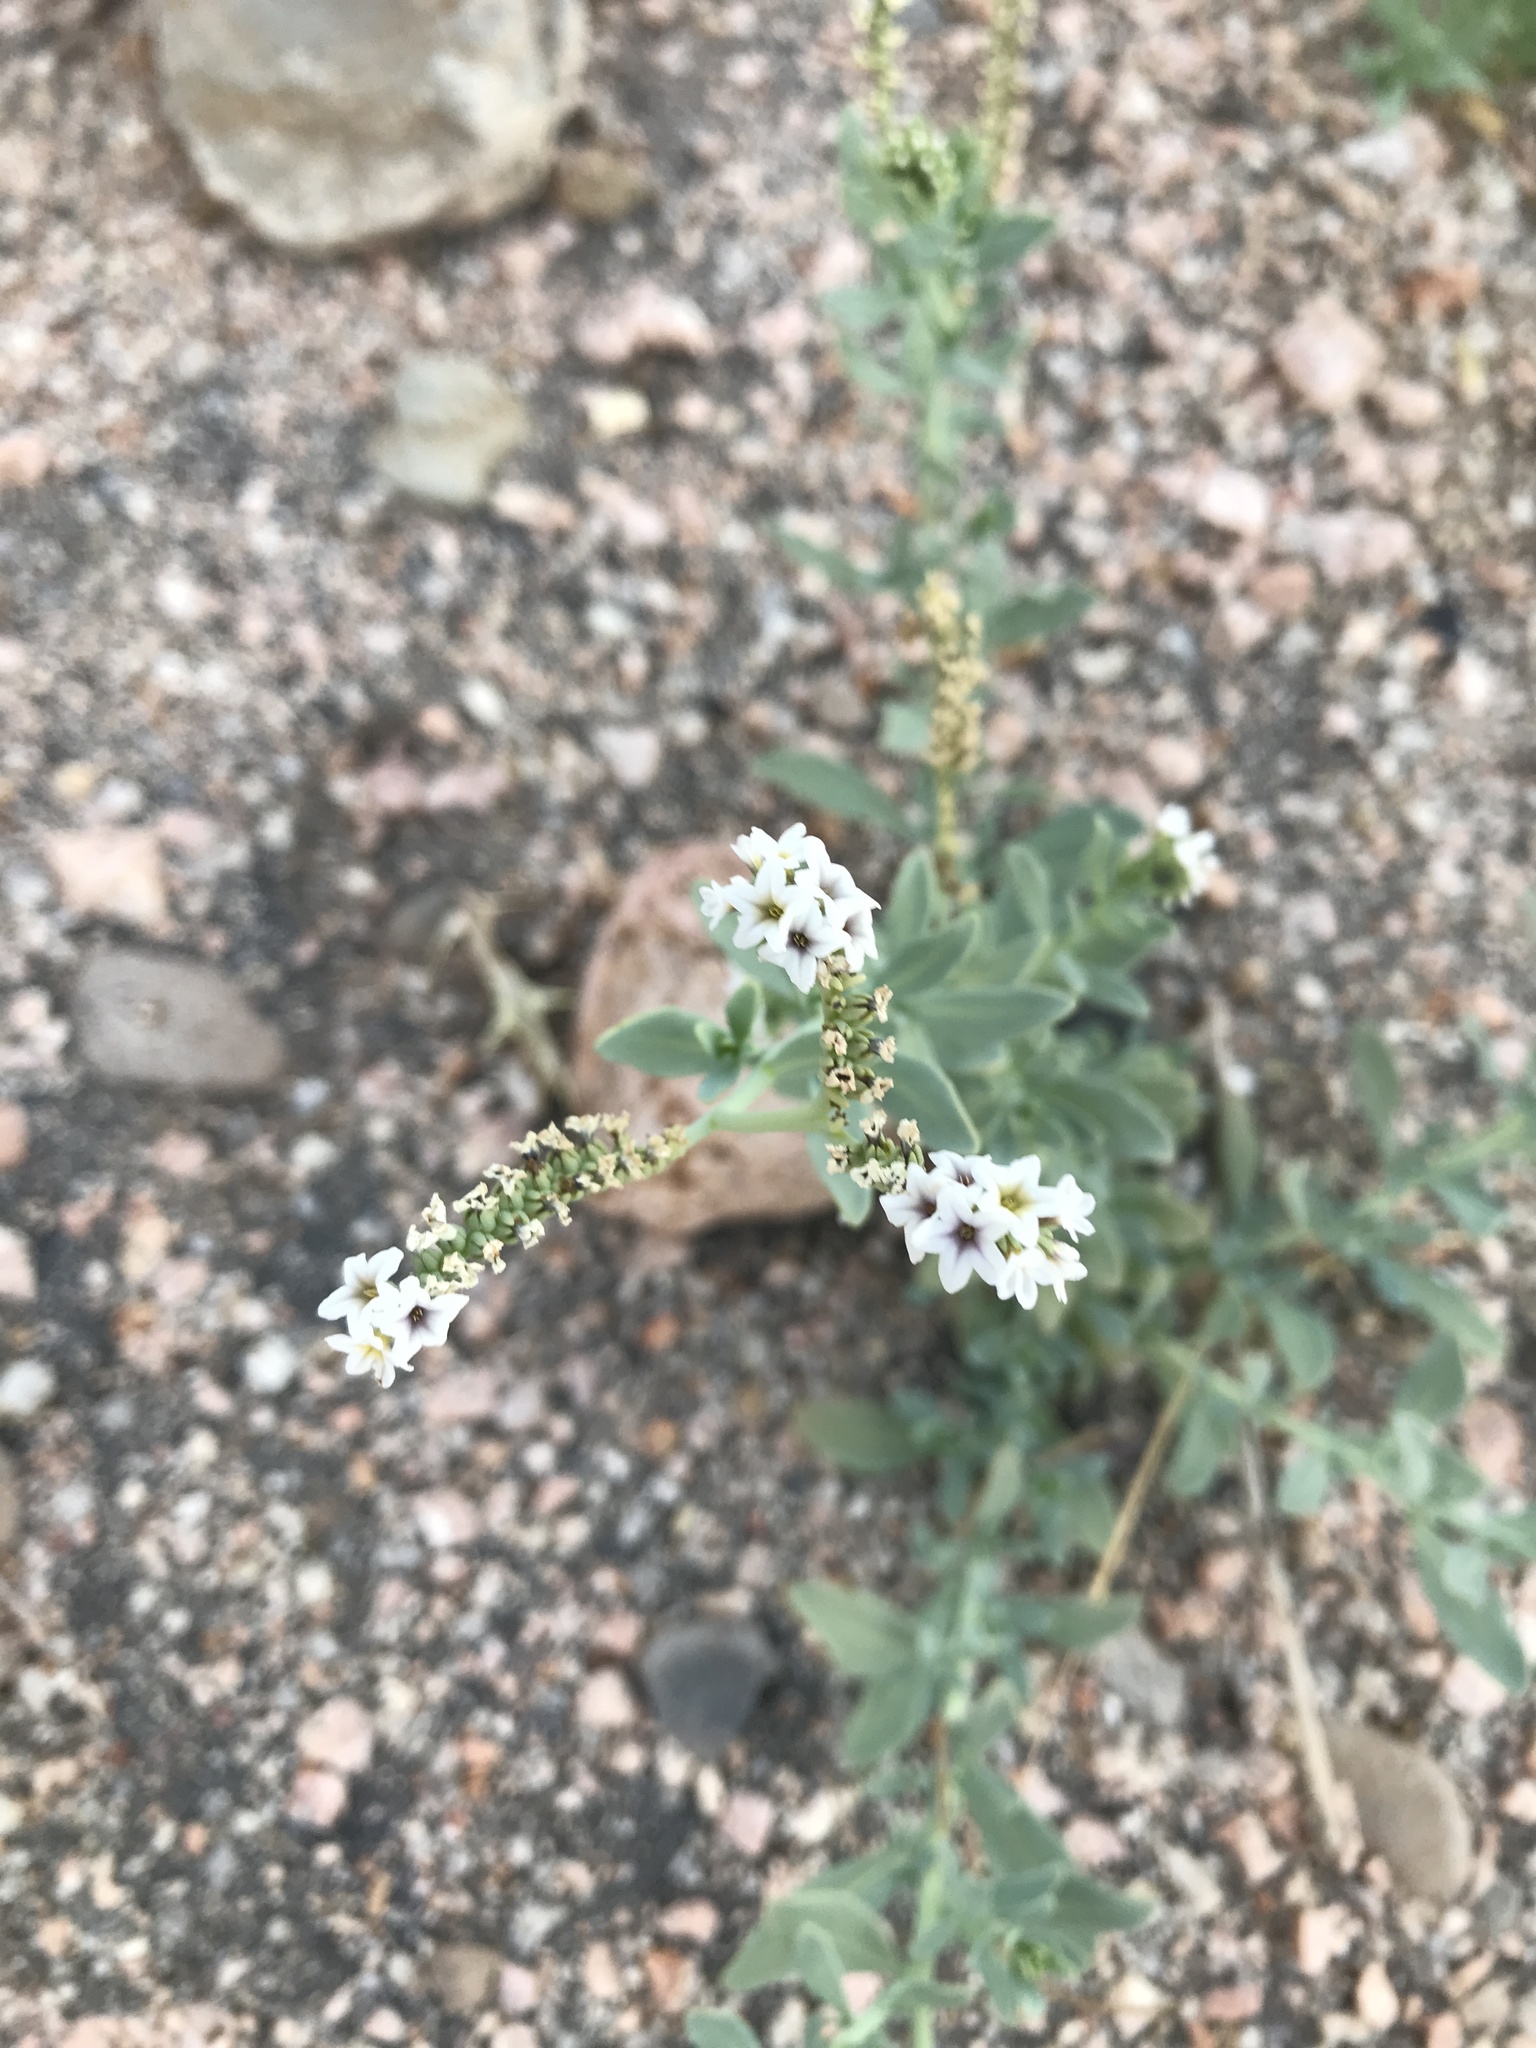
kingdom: Plantae
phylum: Tracheophyta
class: Magnoliopsida
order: Boraginales
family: Heliotropiaceae
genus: Heliotropium
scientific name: Heliotropium curassavicum
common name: Seaside heliotrope
